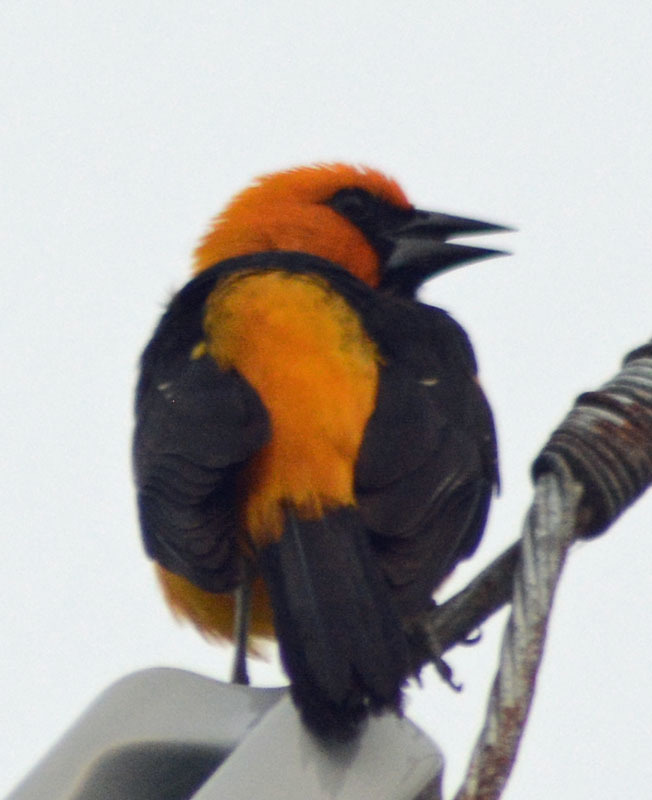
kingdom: Animalia
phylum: Chordata
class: Aves
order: Passeriformes
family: Icteridae
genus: Icterus
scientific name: Icterus gularis
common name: Altamira oriole
